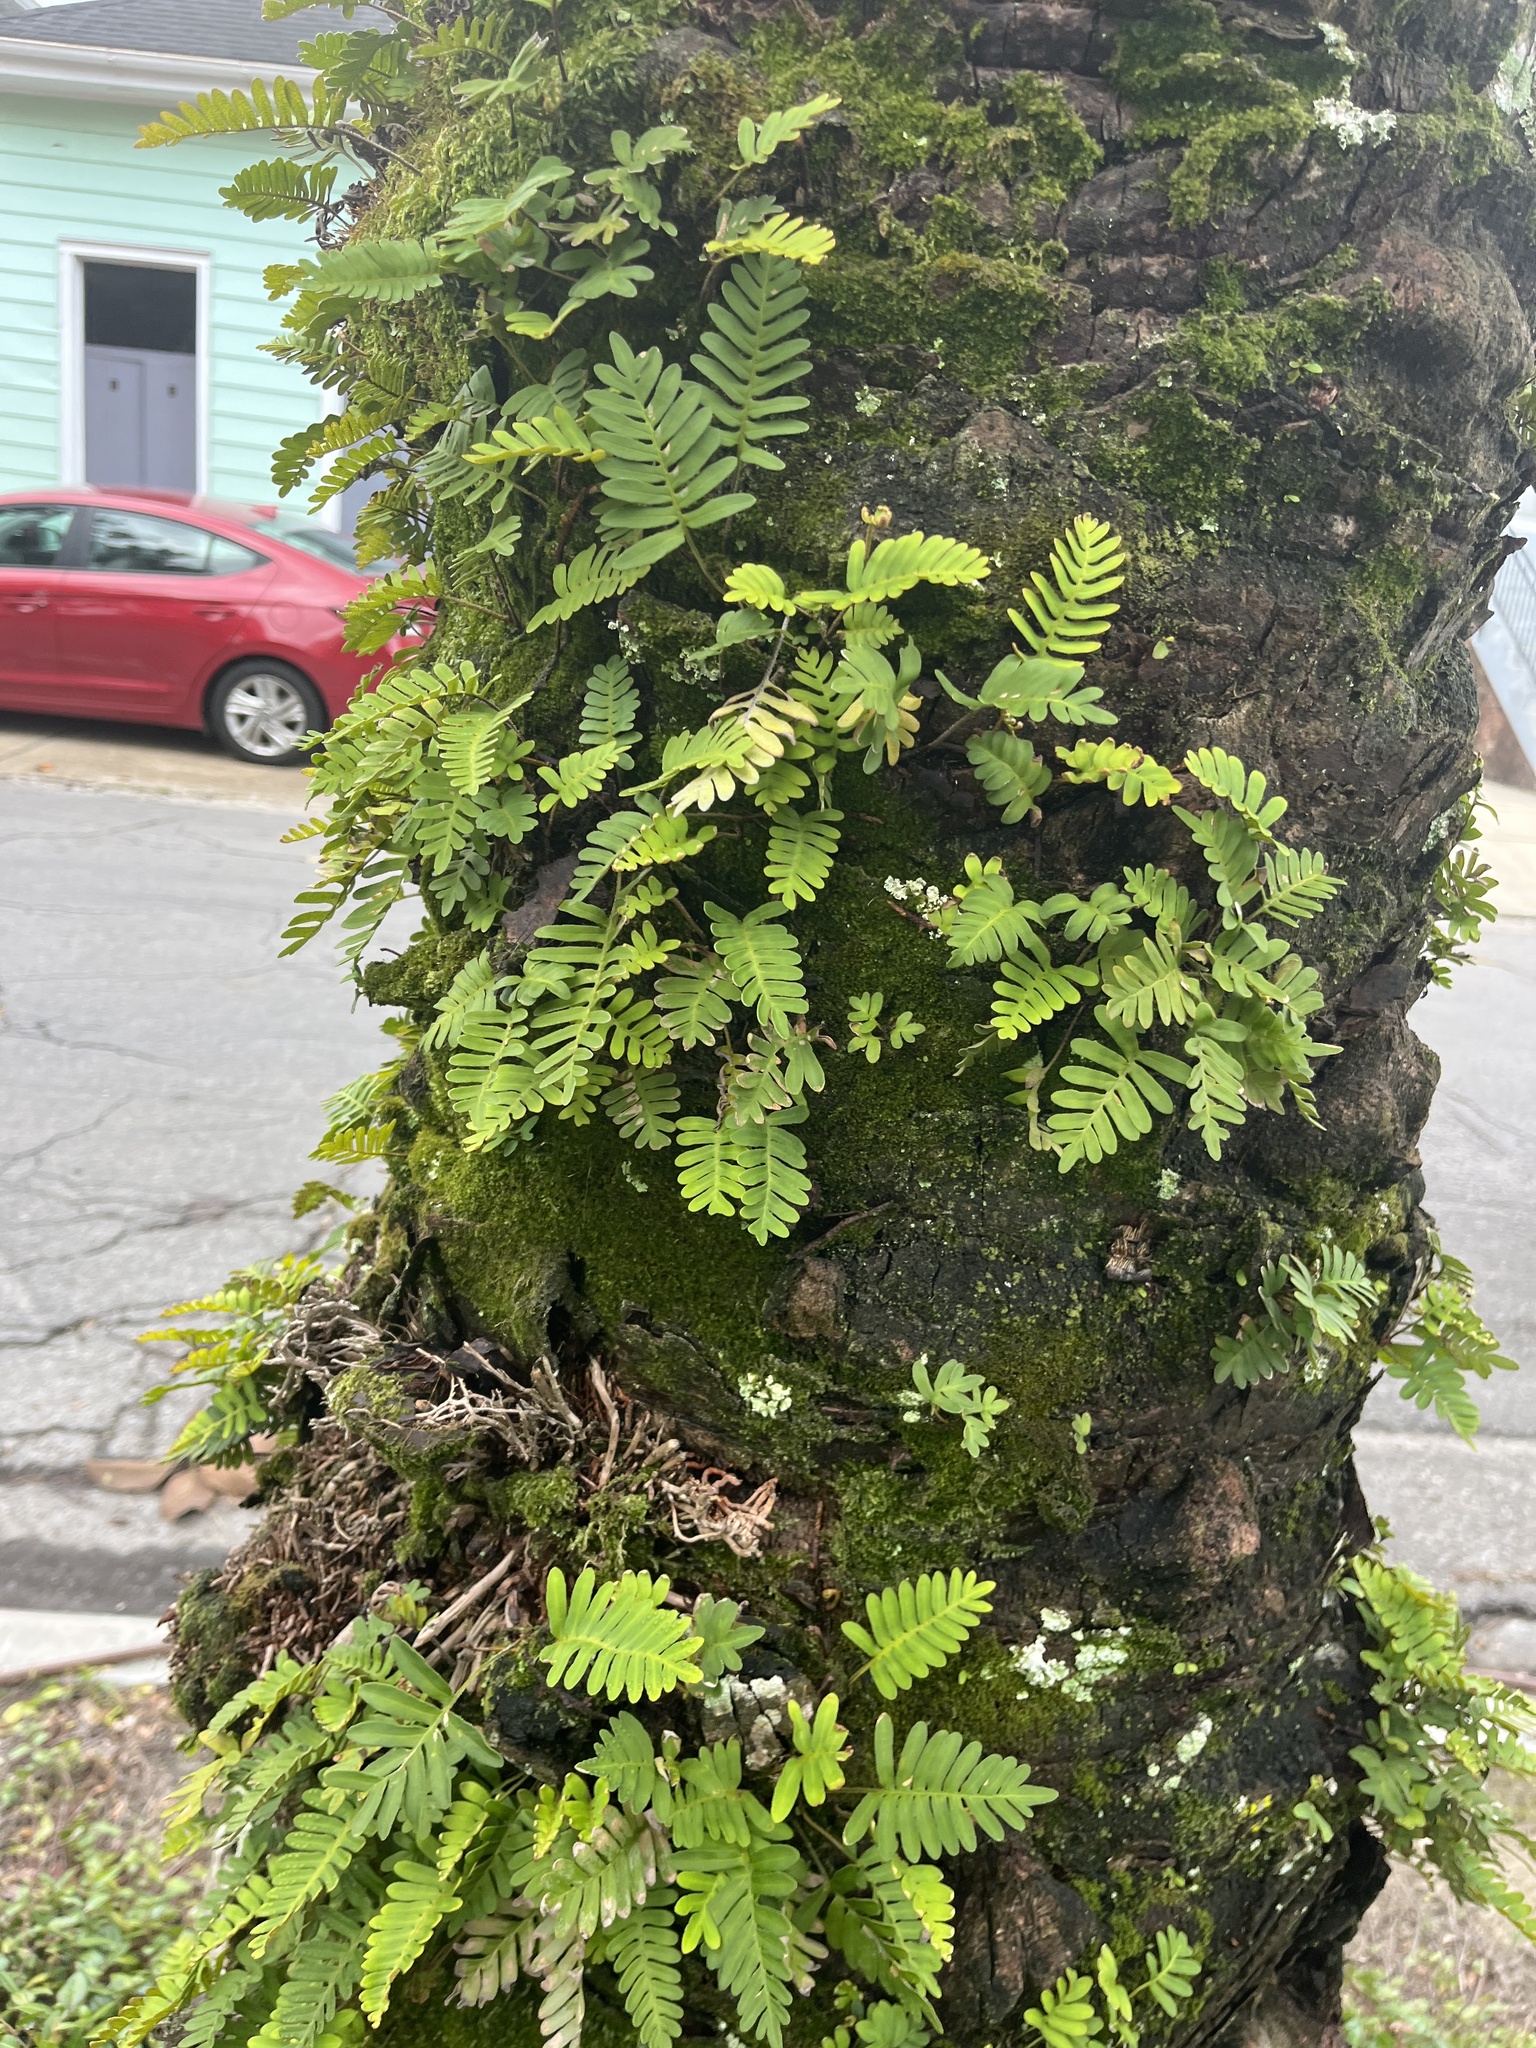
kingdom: Plantae
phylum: Tracheophyta
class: Polypodiopsida
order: Polypodiales
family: Polypodiaceae
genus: Pleopeltis
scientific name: Pleopeltis michauxiana
